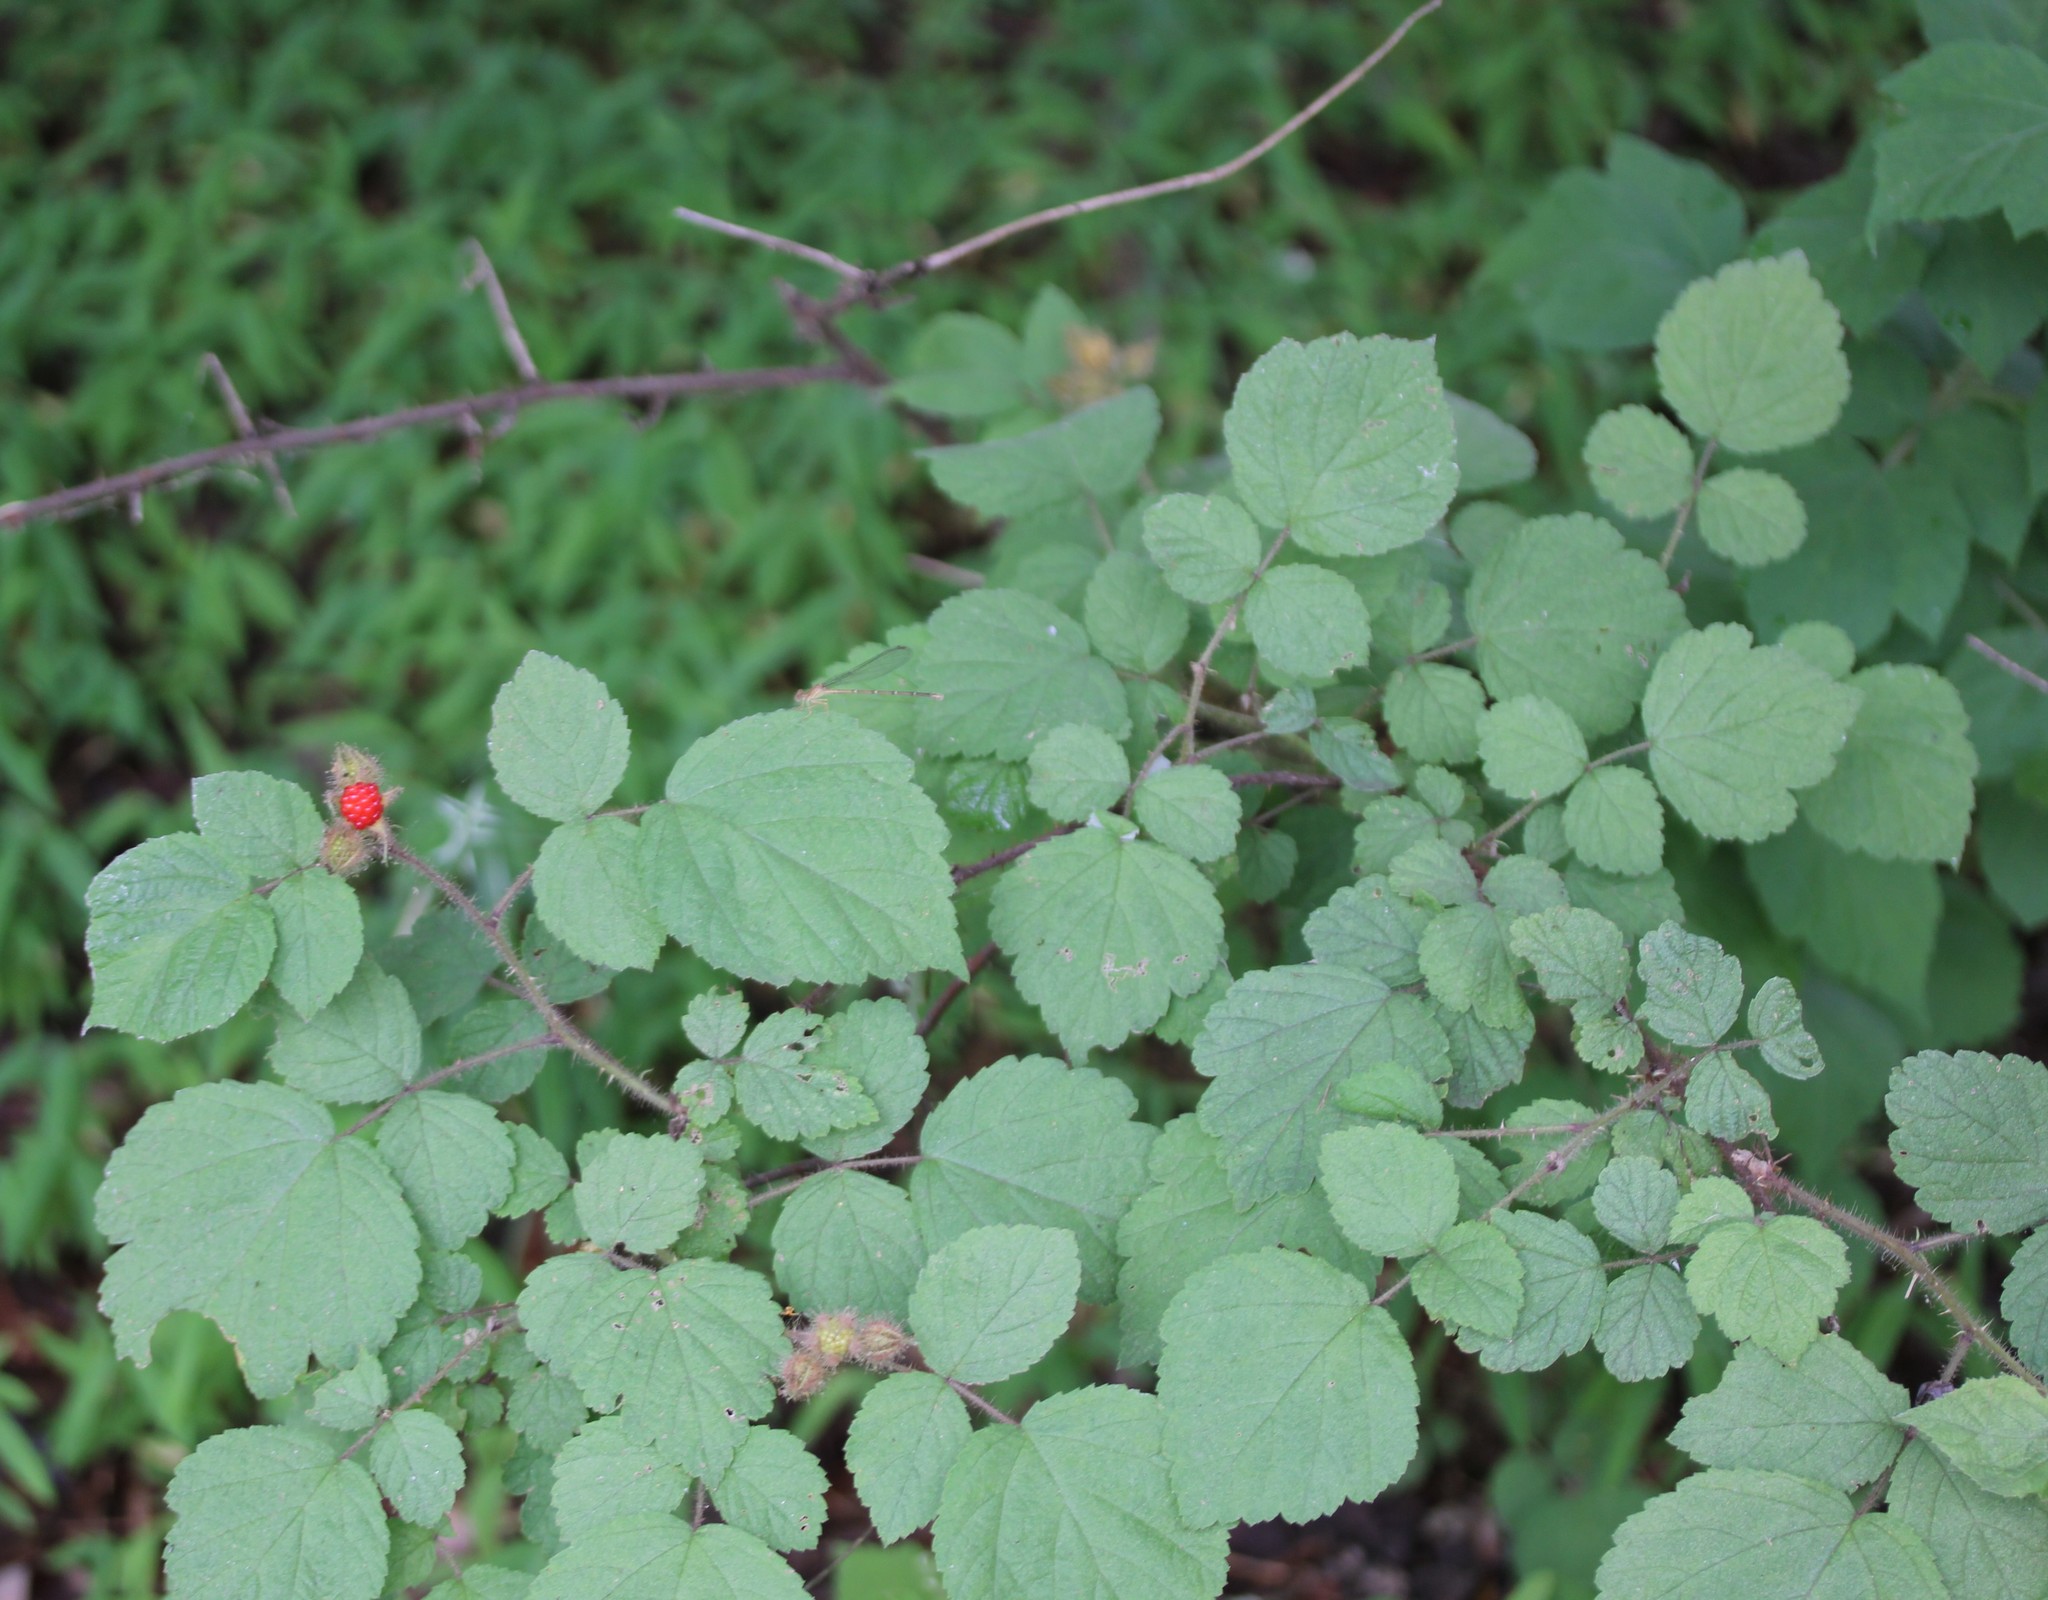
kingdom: Plantae
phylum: Tracheophyta
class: Magnoliopsida
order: Rosales
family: Rosaceae
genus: Rubus
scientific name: Rubus phoenicolasius
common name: Japanese wineberry
